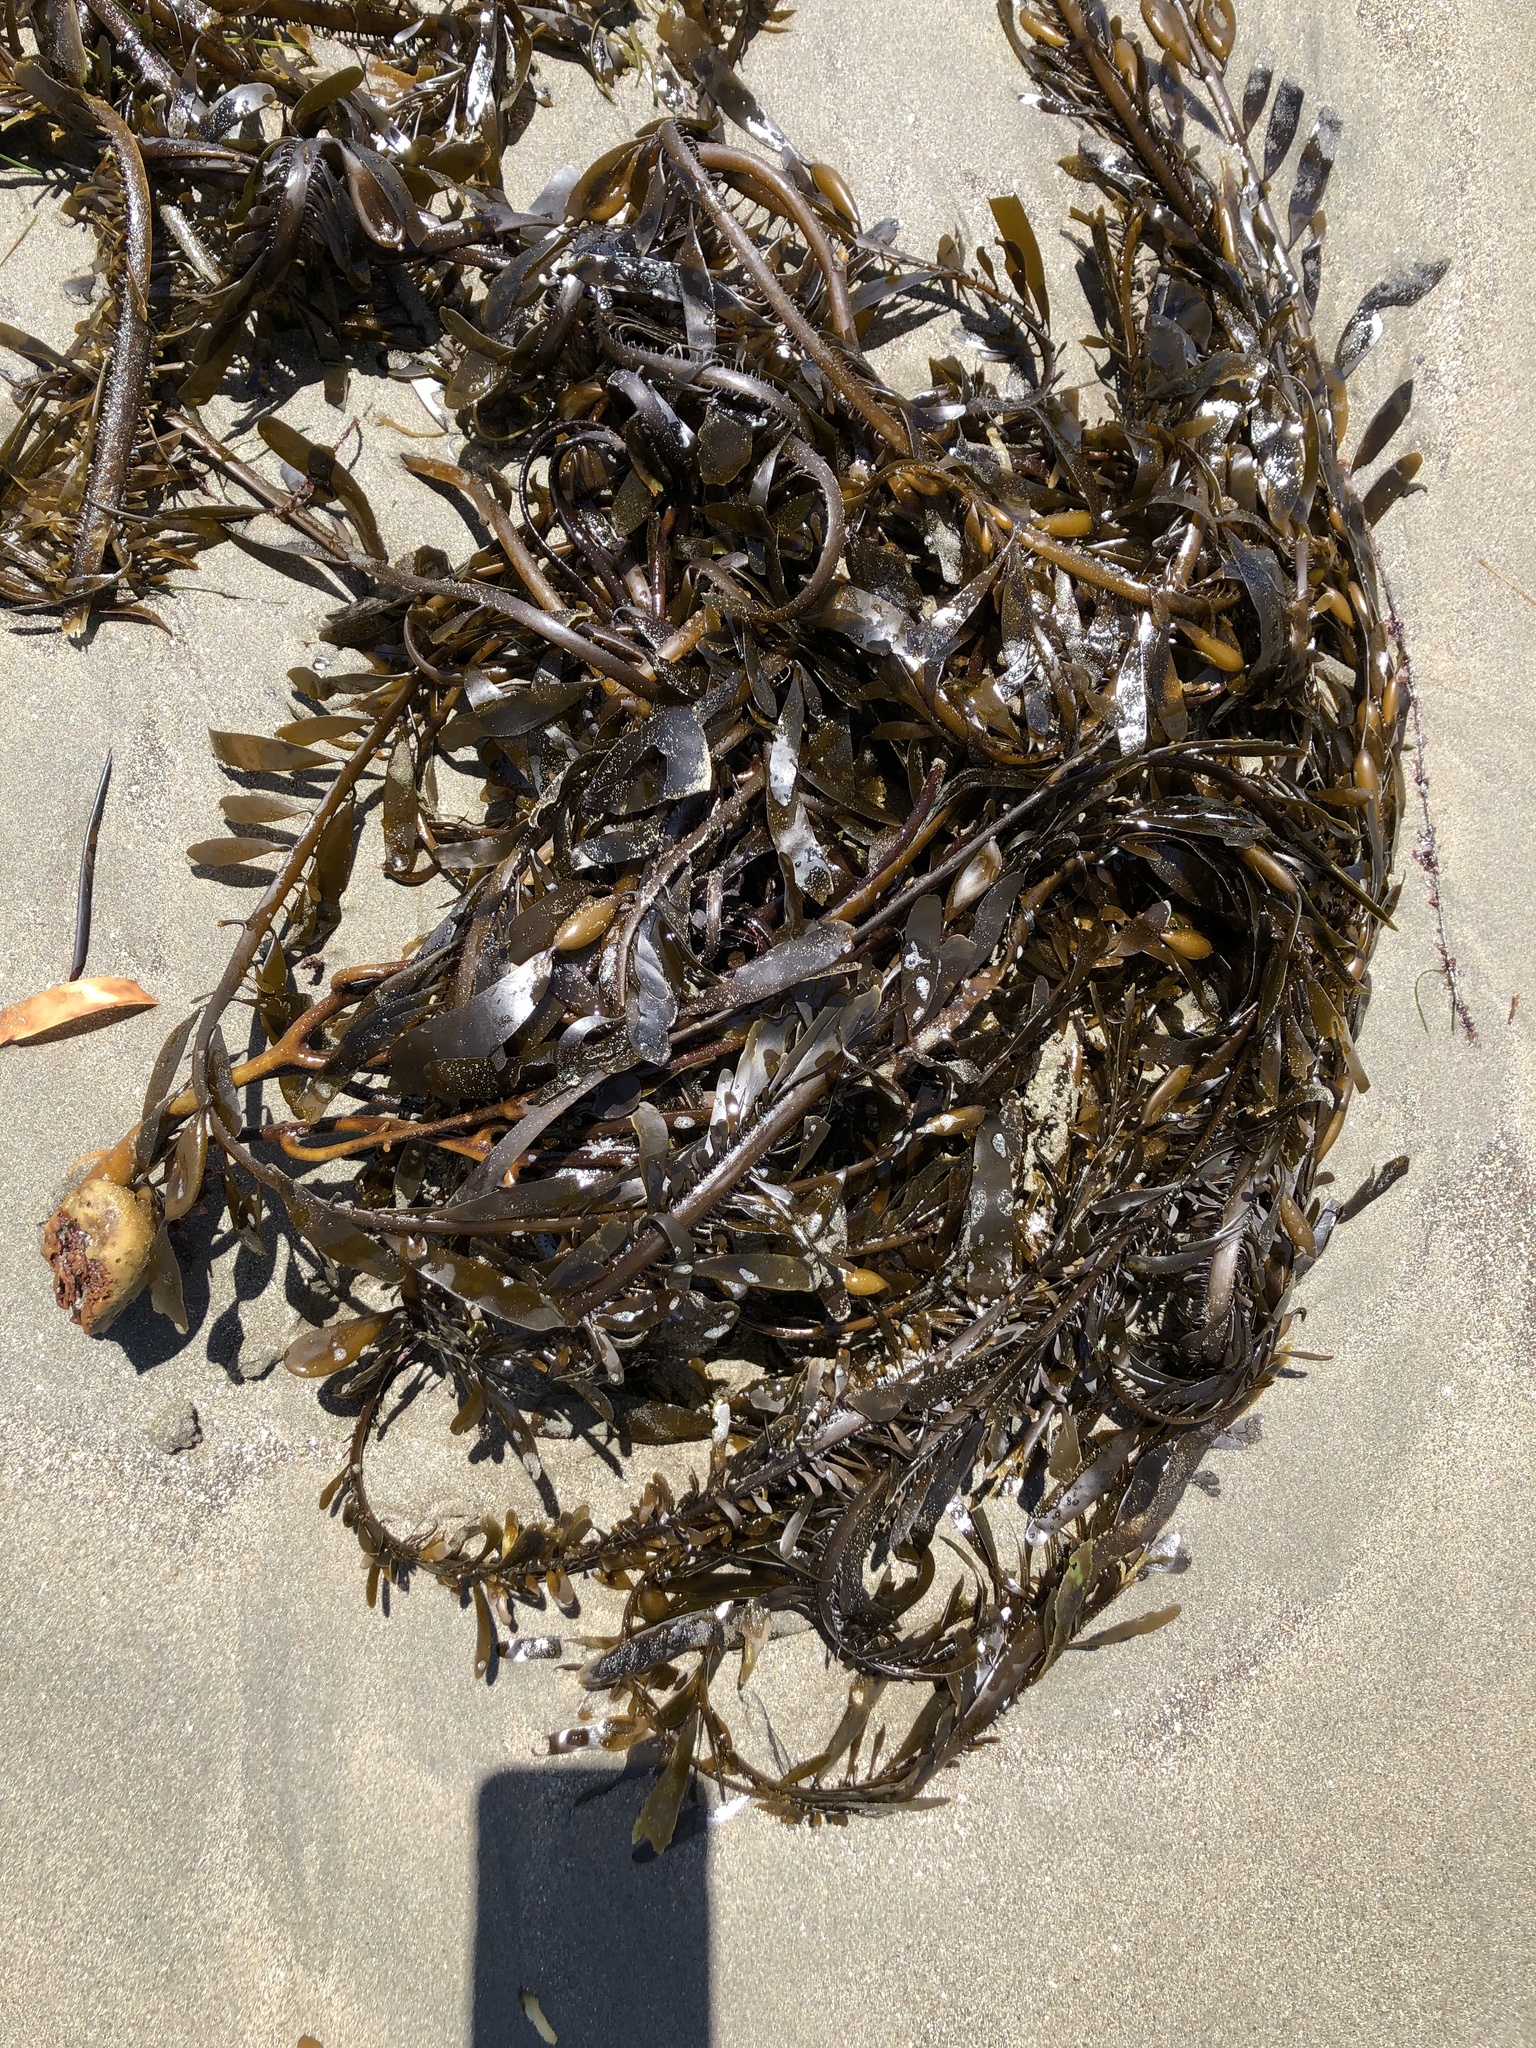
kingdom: Chromista
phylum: Ochrophyta
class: Phaeophyceae
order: Laminariales
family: Lessoniaceae
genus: Egregia
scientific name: Egregia menziesii
